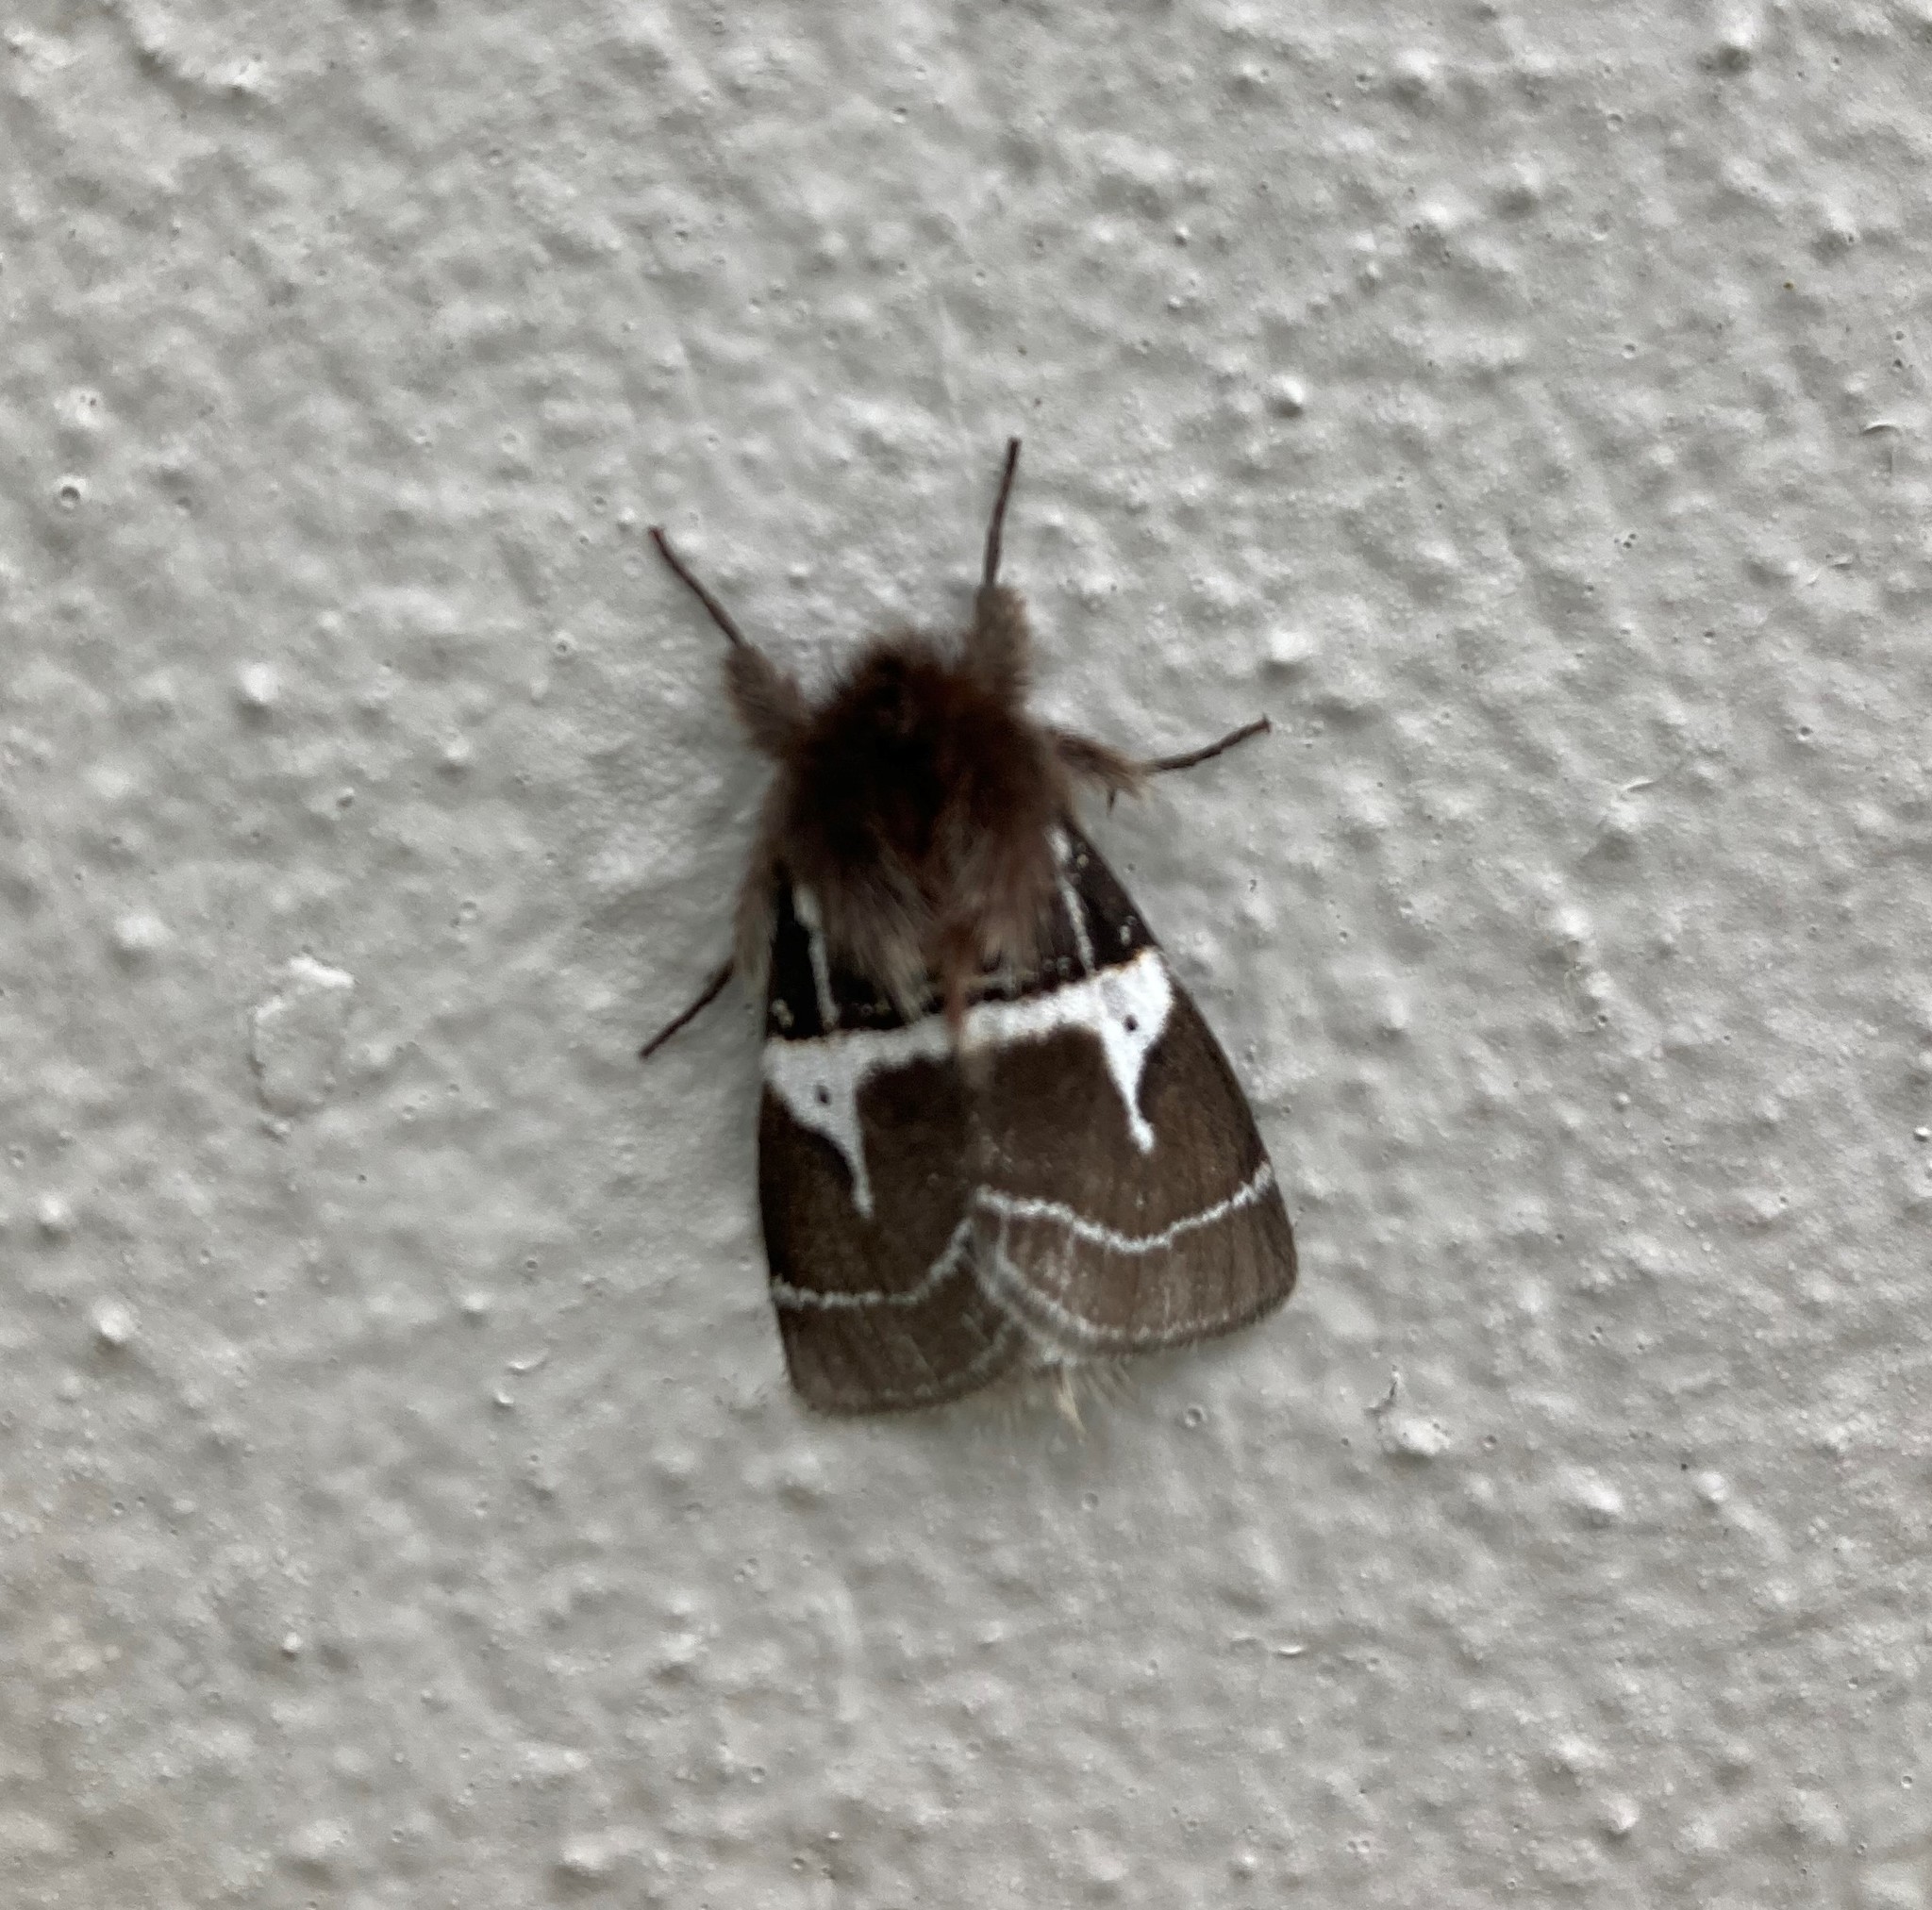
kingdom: Animalia
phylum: Arthropoda
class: Insecta
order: Lepidoptera
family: Erebidae
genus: Lymantria
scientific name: Lymantria Morasa modesta
